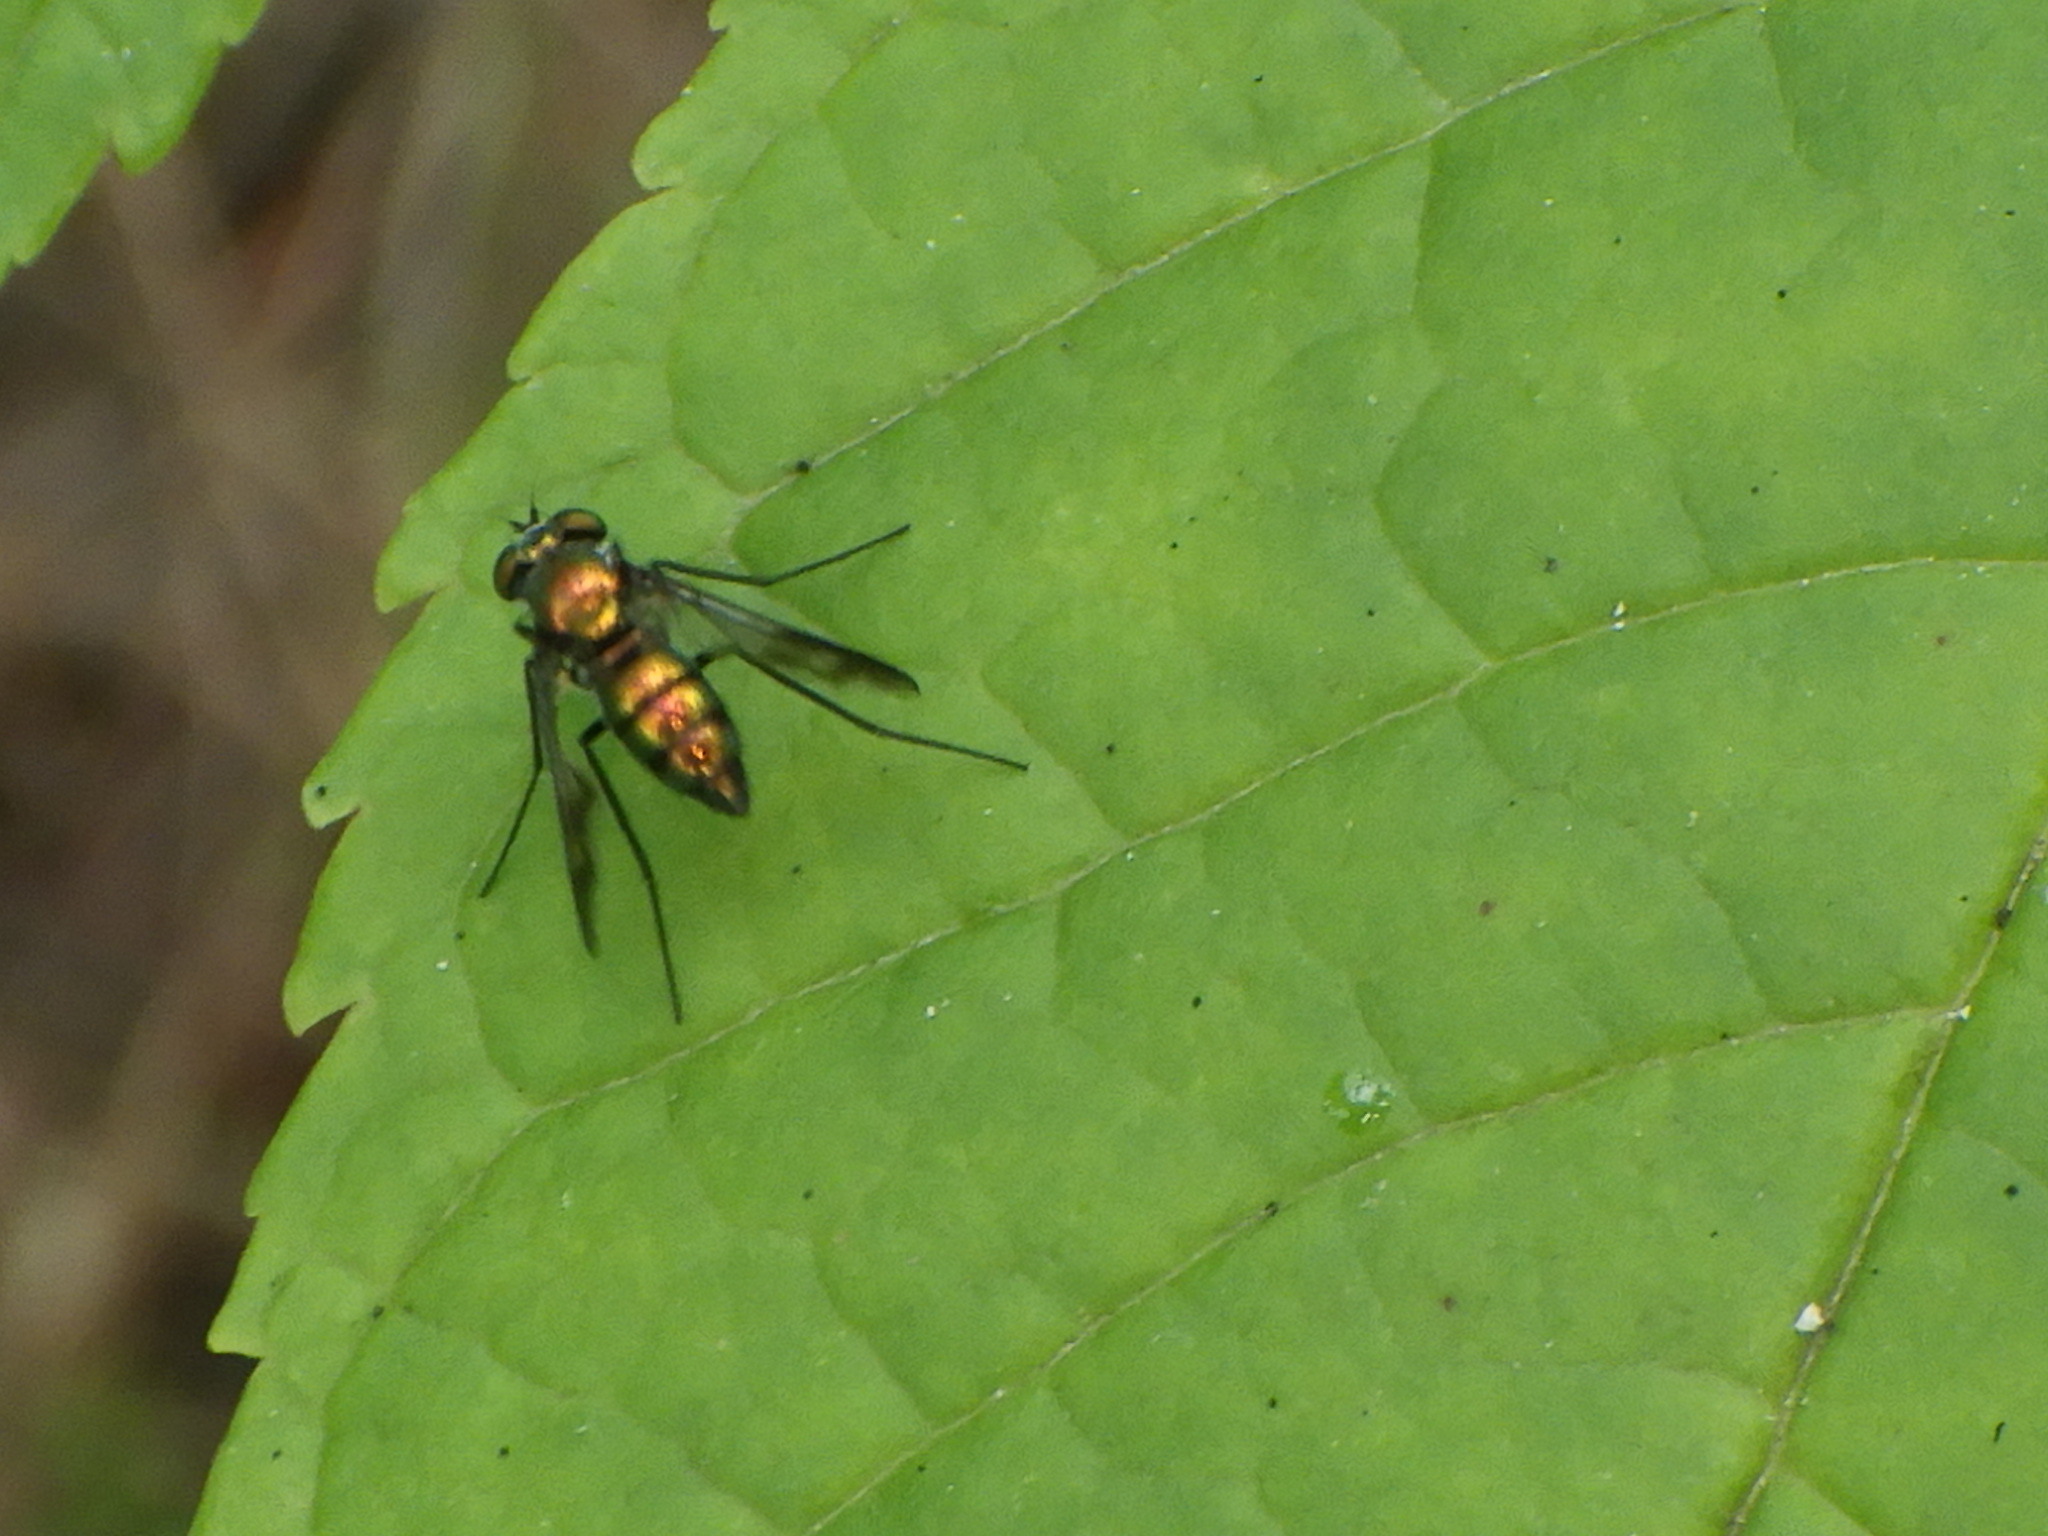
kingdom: Animalia
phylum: Arthropoda
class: Insecta
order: Diptera
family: Dolichopodidae
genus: Condylostylus
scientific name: Condylostylus patibulatus
